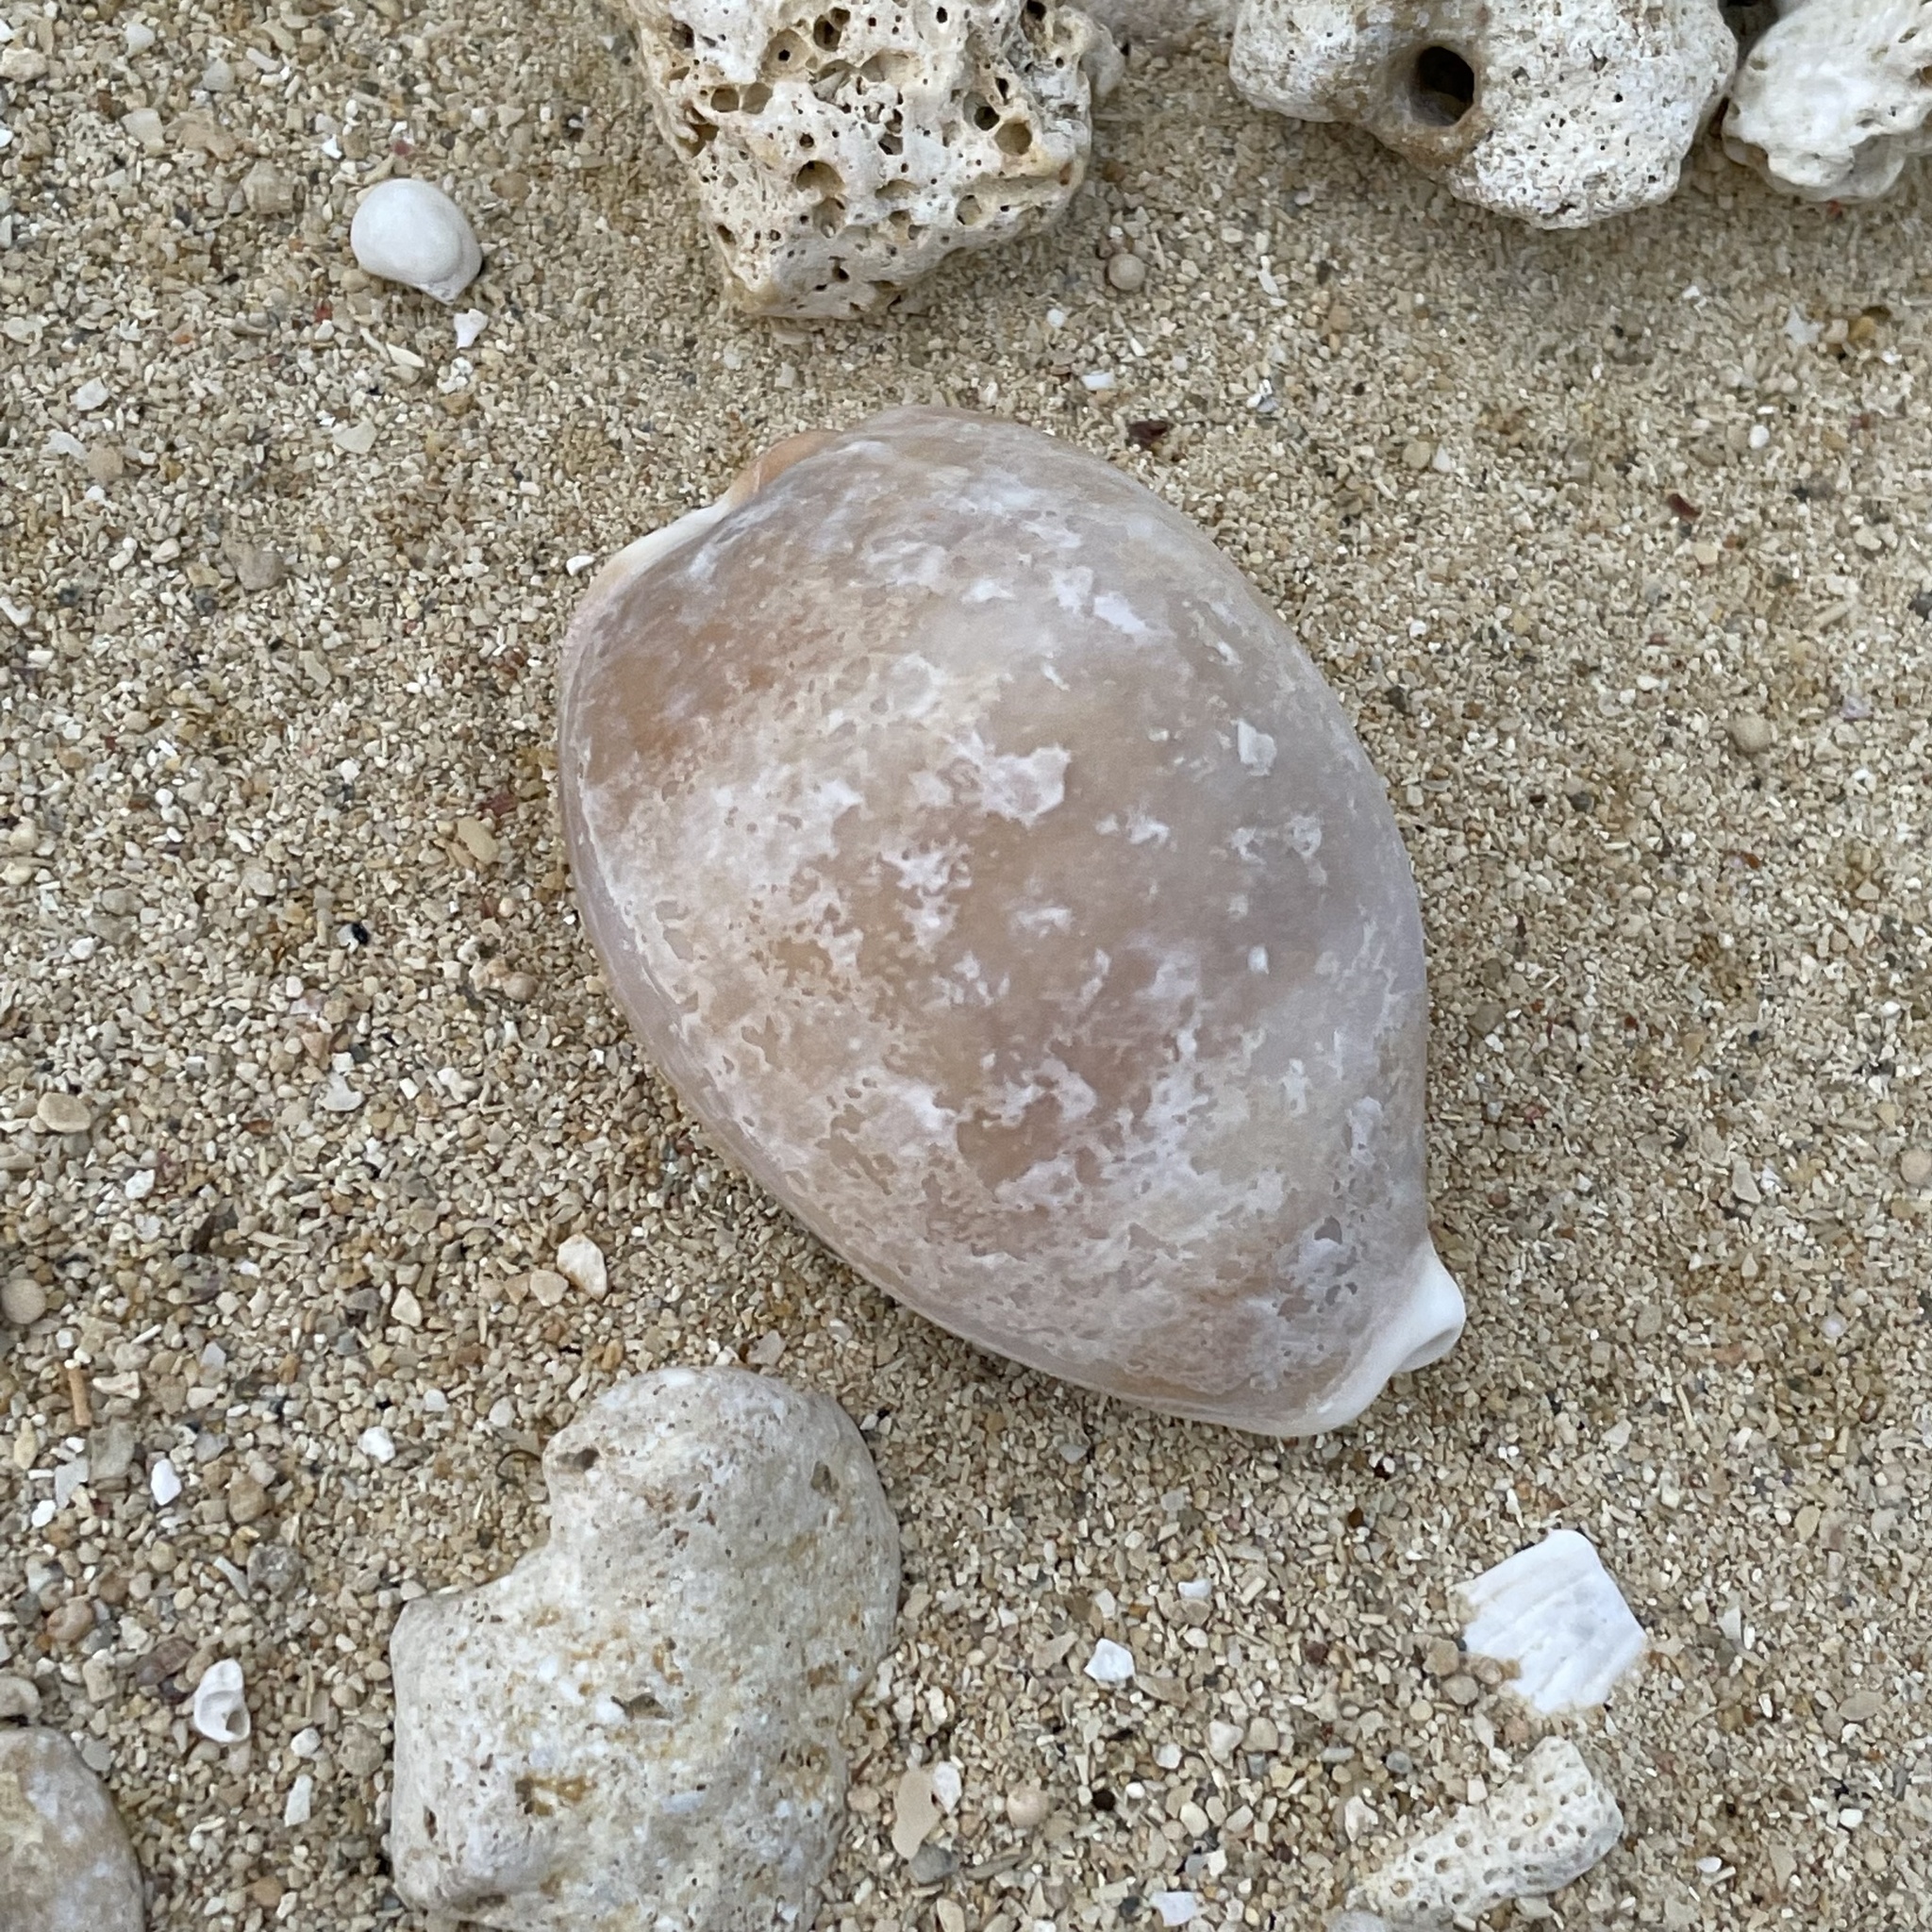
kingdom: Animalia
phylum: Mollusca
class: Gastropoda
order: Littorinimorpha
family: Cypraeidae
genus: Lyncina
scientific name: Lyncina vitellus
